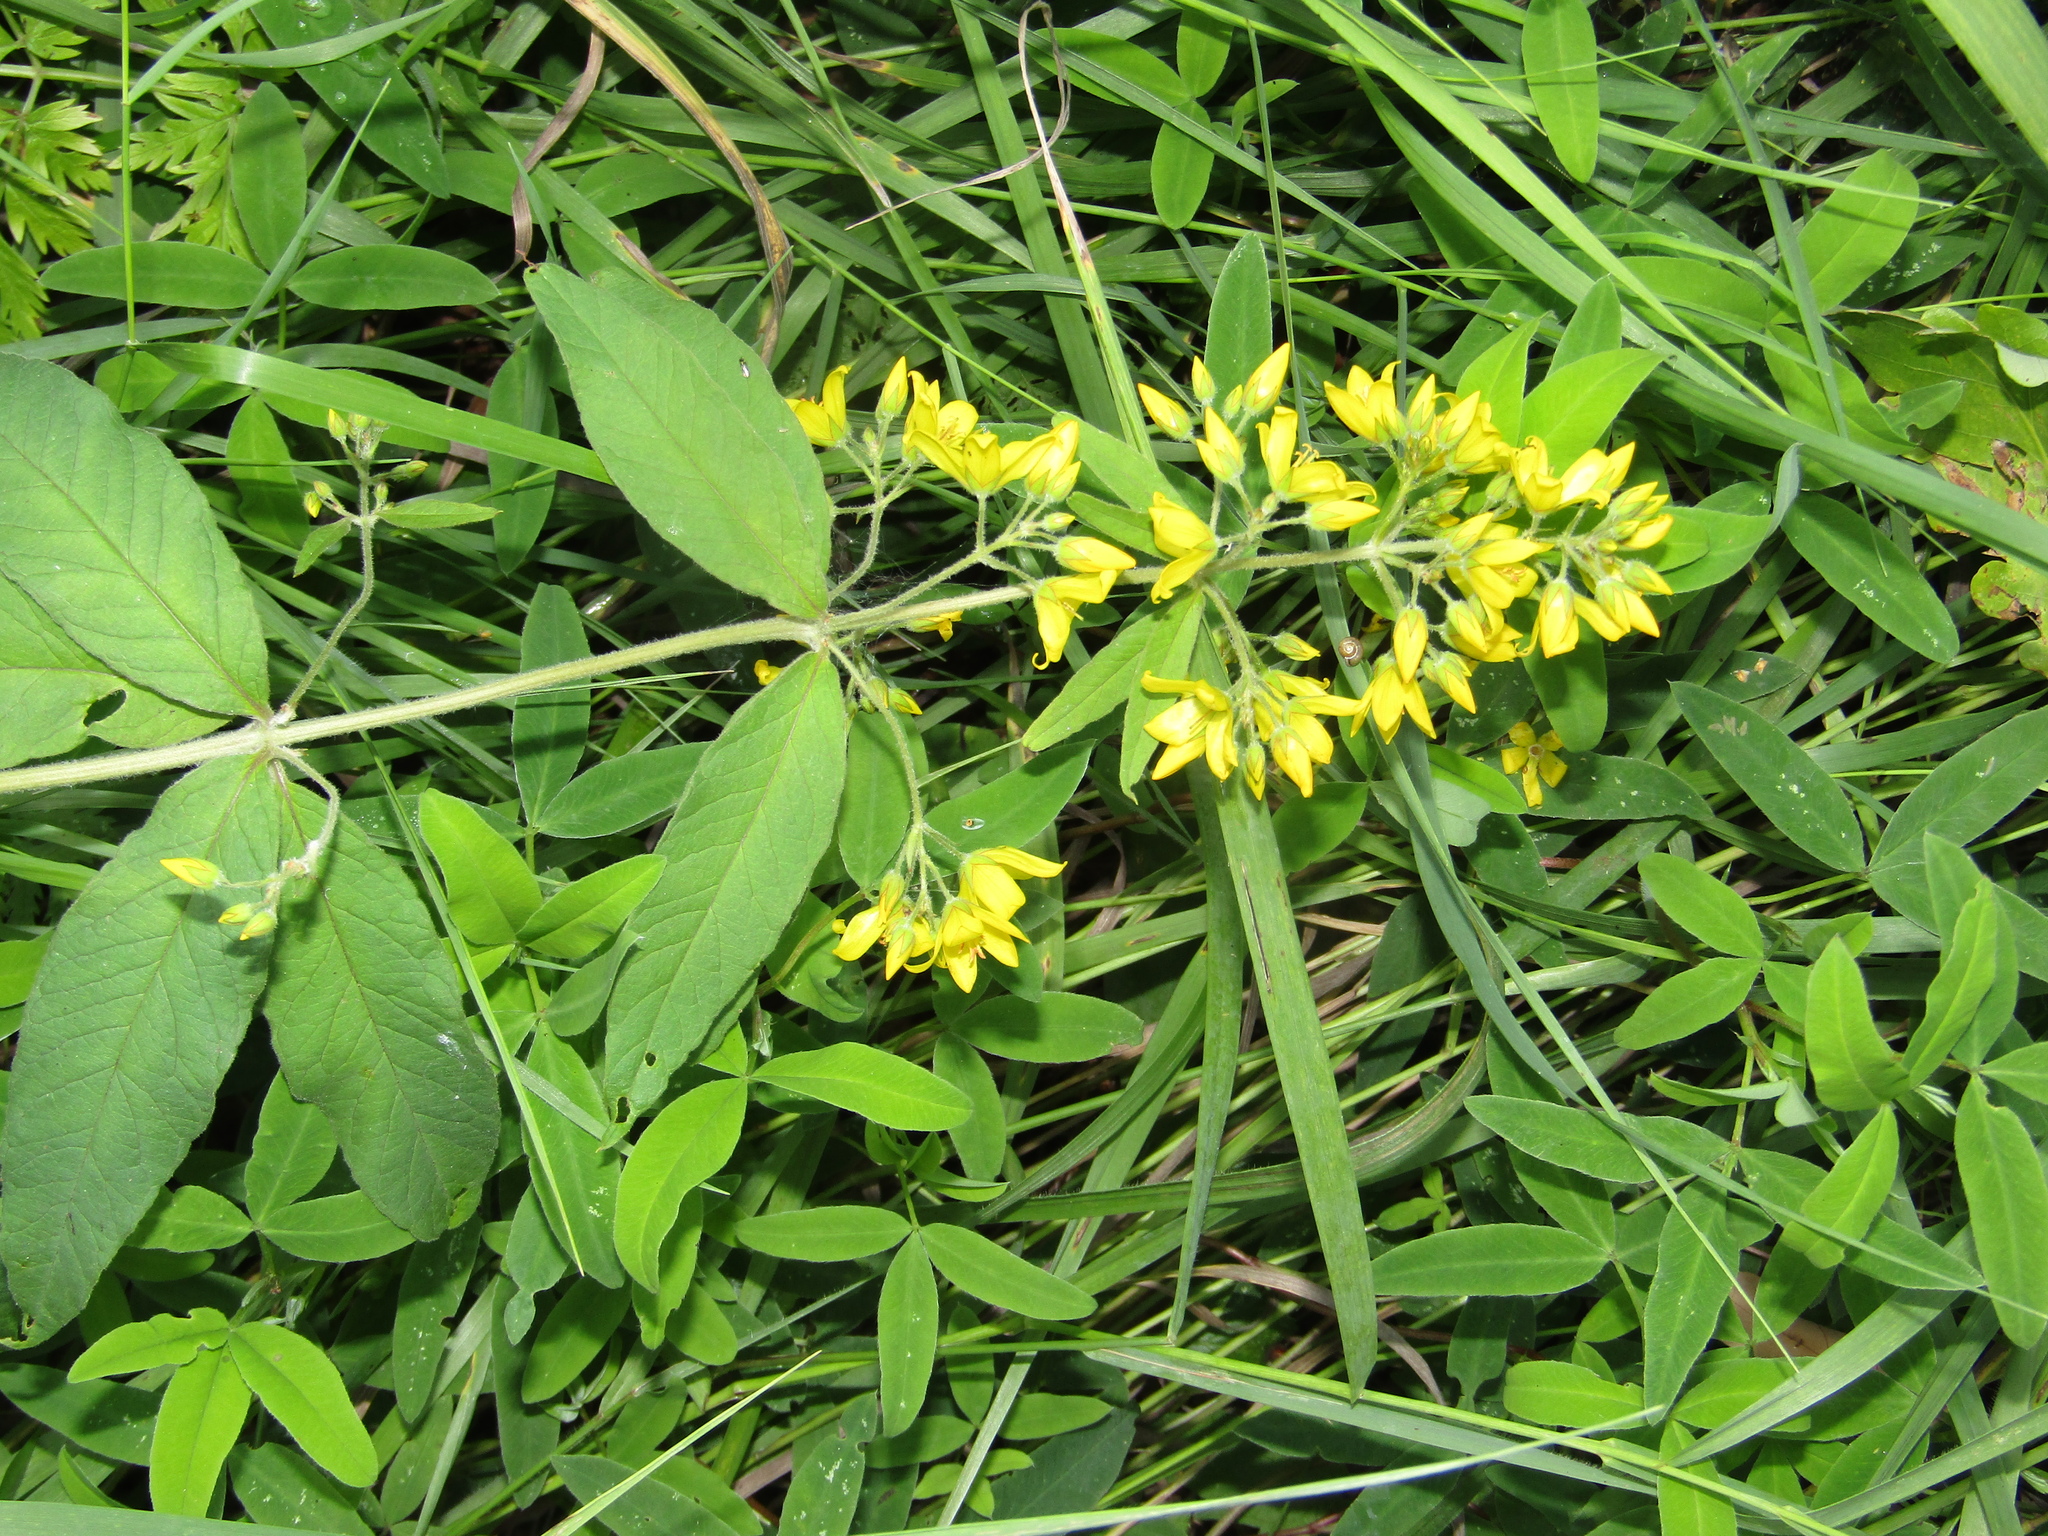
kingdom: Plantae
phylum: Tracheophyta
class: Magnoliopsida
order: Ericales
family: Primulaceae
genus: Lysimachia
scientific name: Lysimachia vulgaris
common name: Yellow loosestrife
